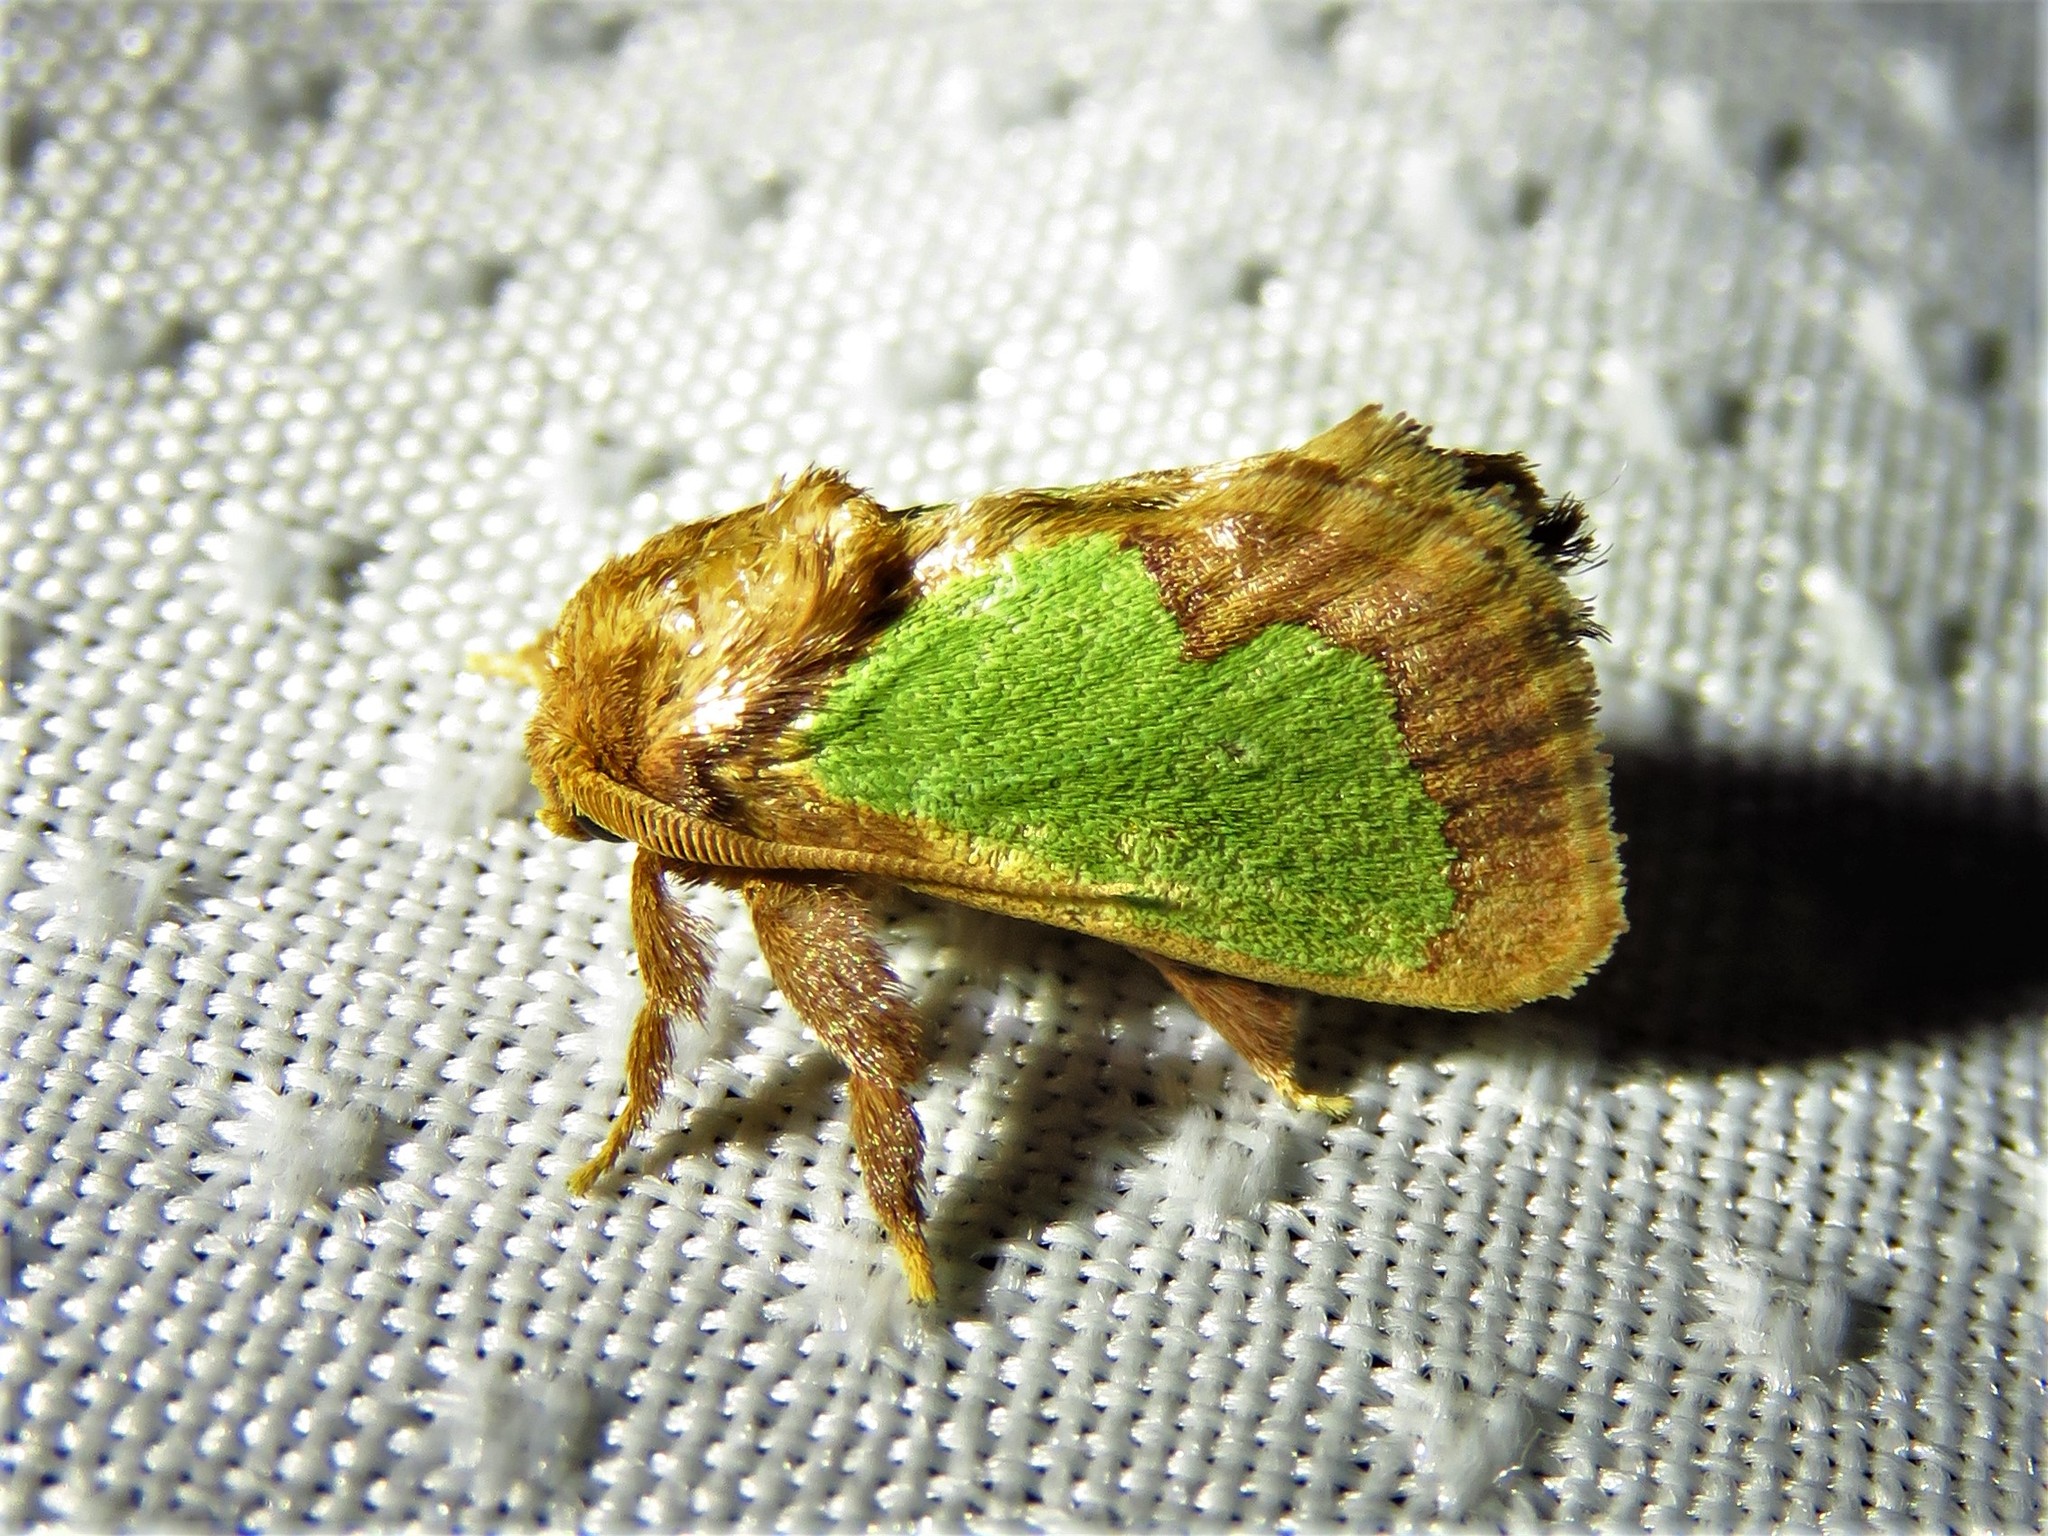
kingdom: Animalia
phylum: Arthropoda
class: Insecta
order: Lepidoptera
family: Limacodidae
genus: Euclea
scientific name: Euclea incisa
